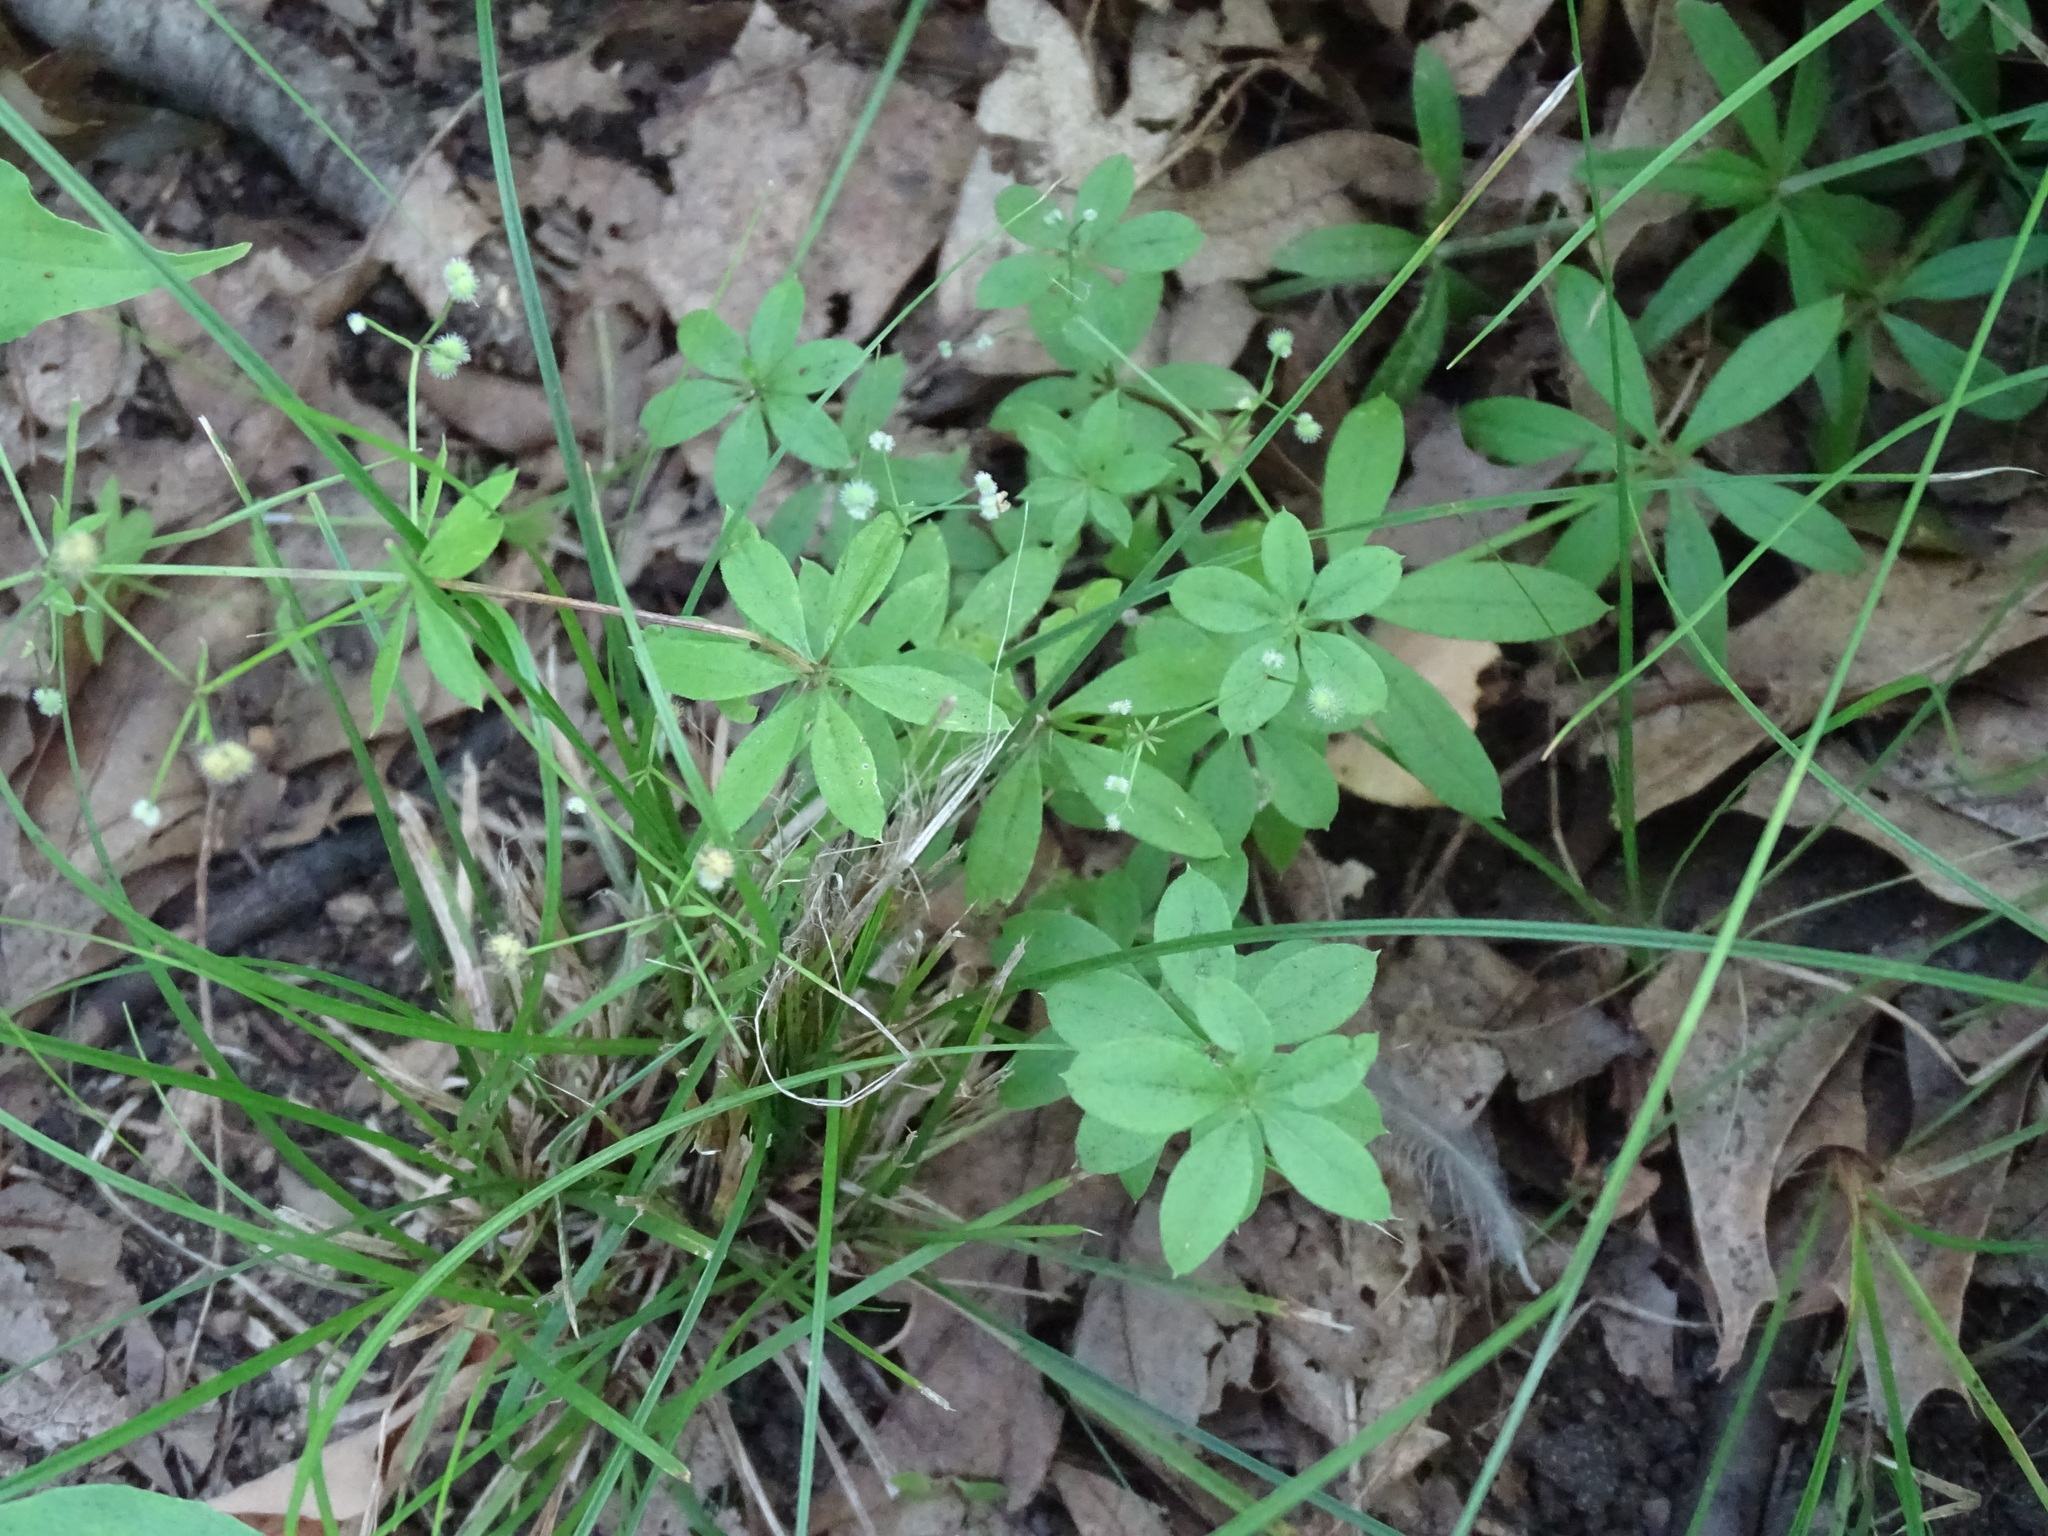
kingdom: Plantae
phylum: Tracheophyta
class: Magnoliopsida
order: Gentianales
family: Rubiaceae
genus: Galium
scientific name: Galium triflorum
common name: Fragrant bedstraw
